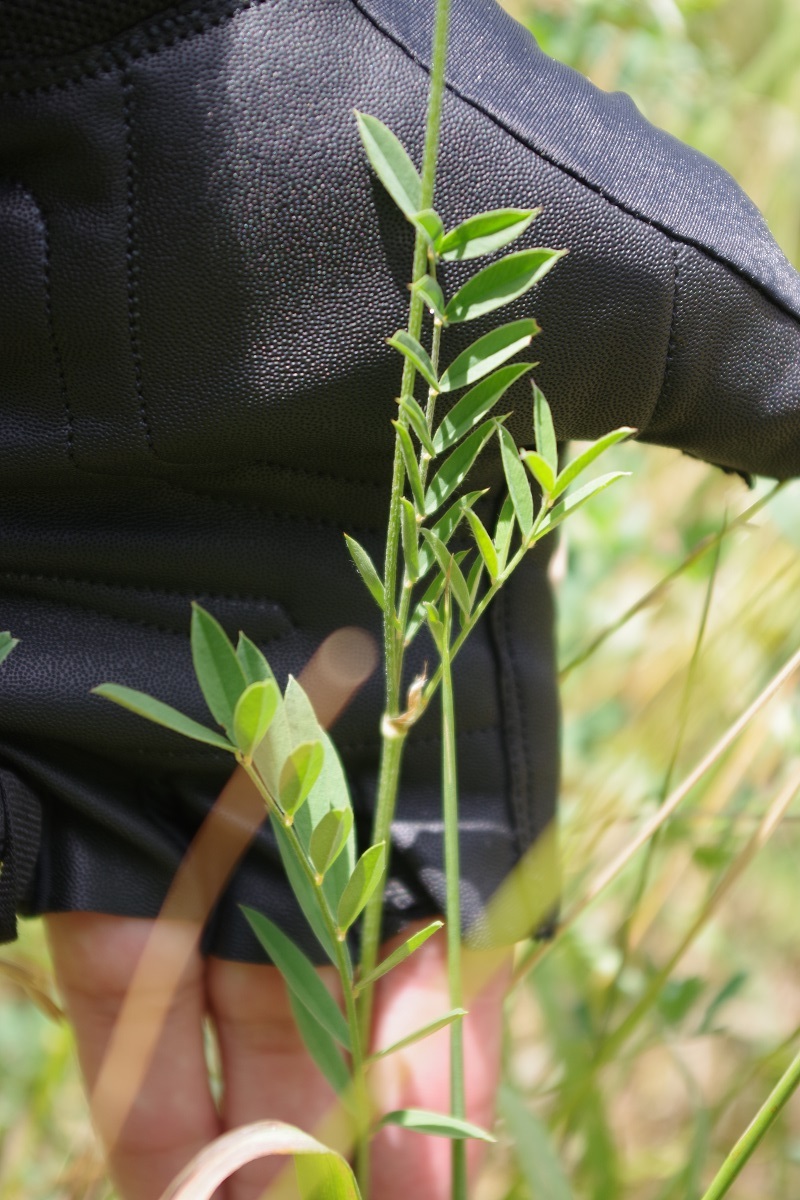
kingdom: Plantae
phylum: Tracheophyta
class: Magnoliopsida
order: Fabales
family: Fabaceae
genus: Onobrychis
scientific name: Onobrychis viciifolia
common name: Sainfoin
